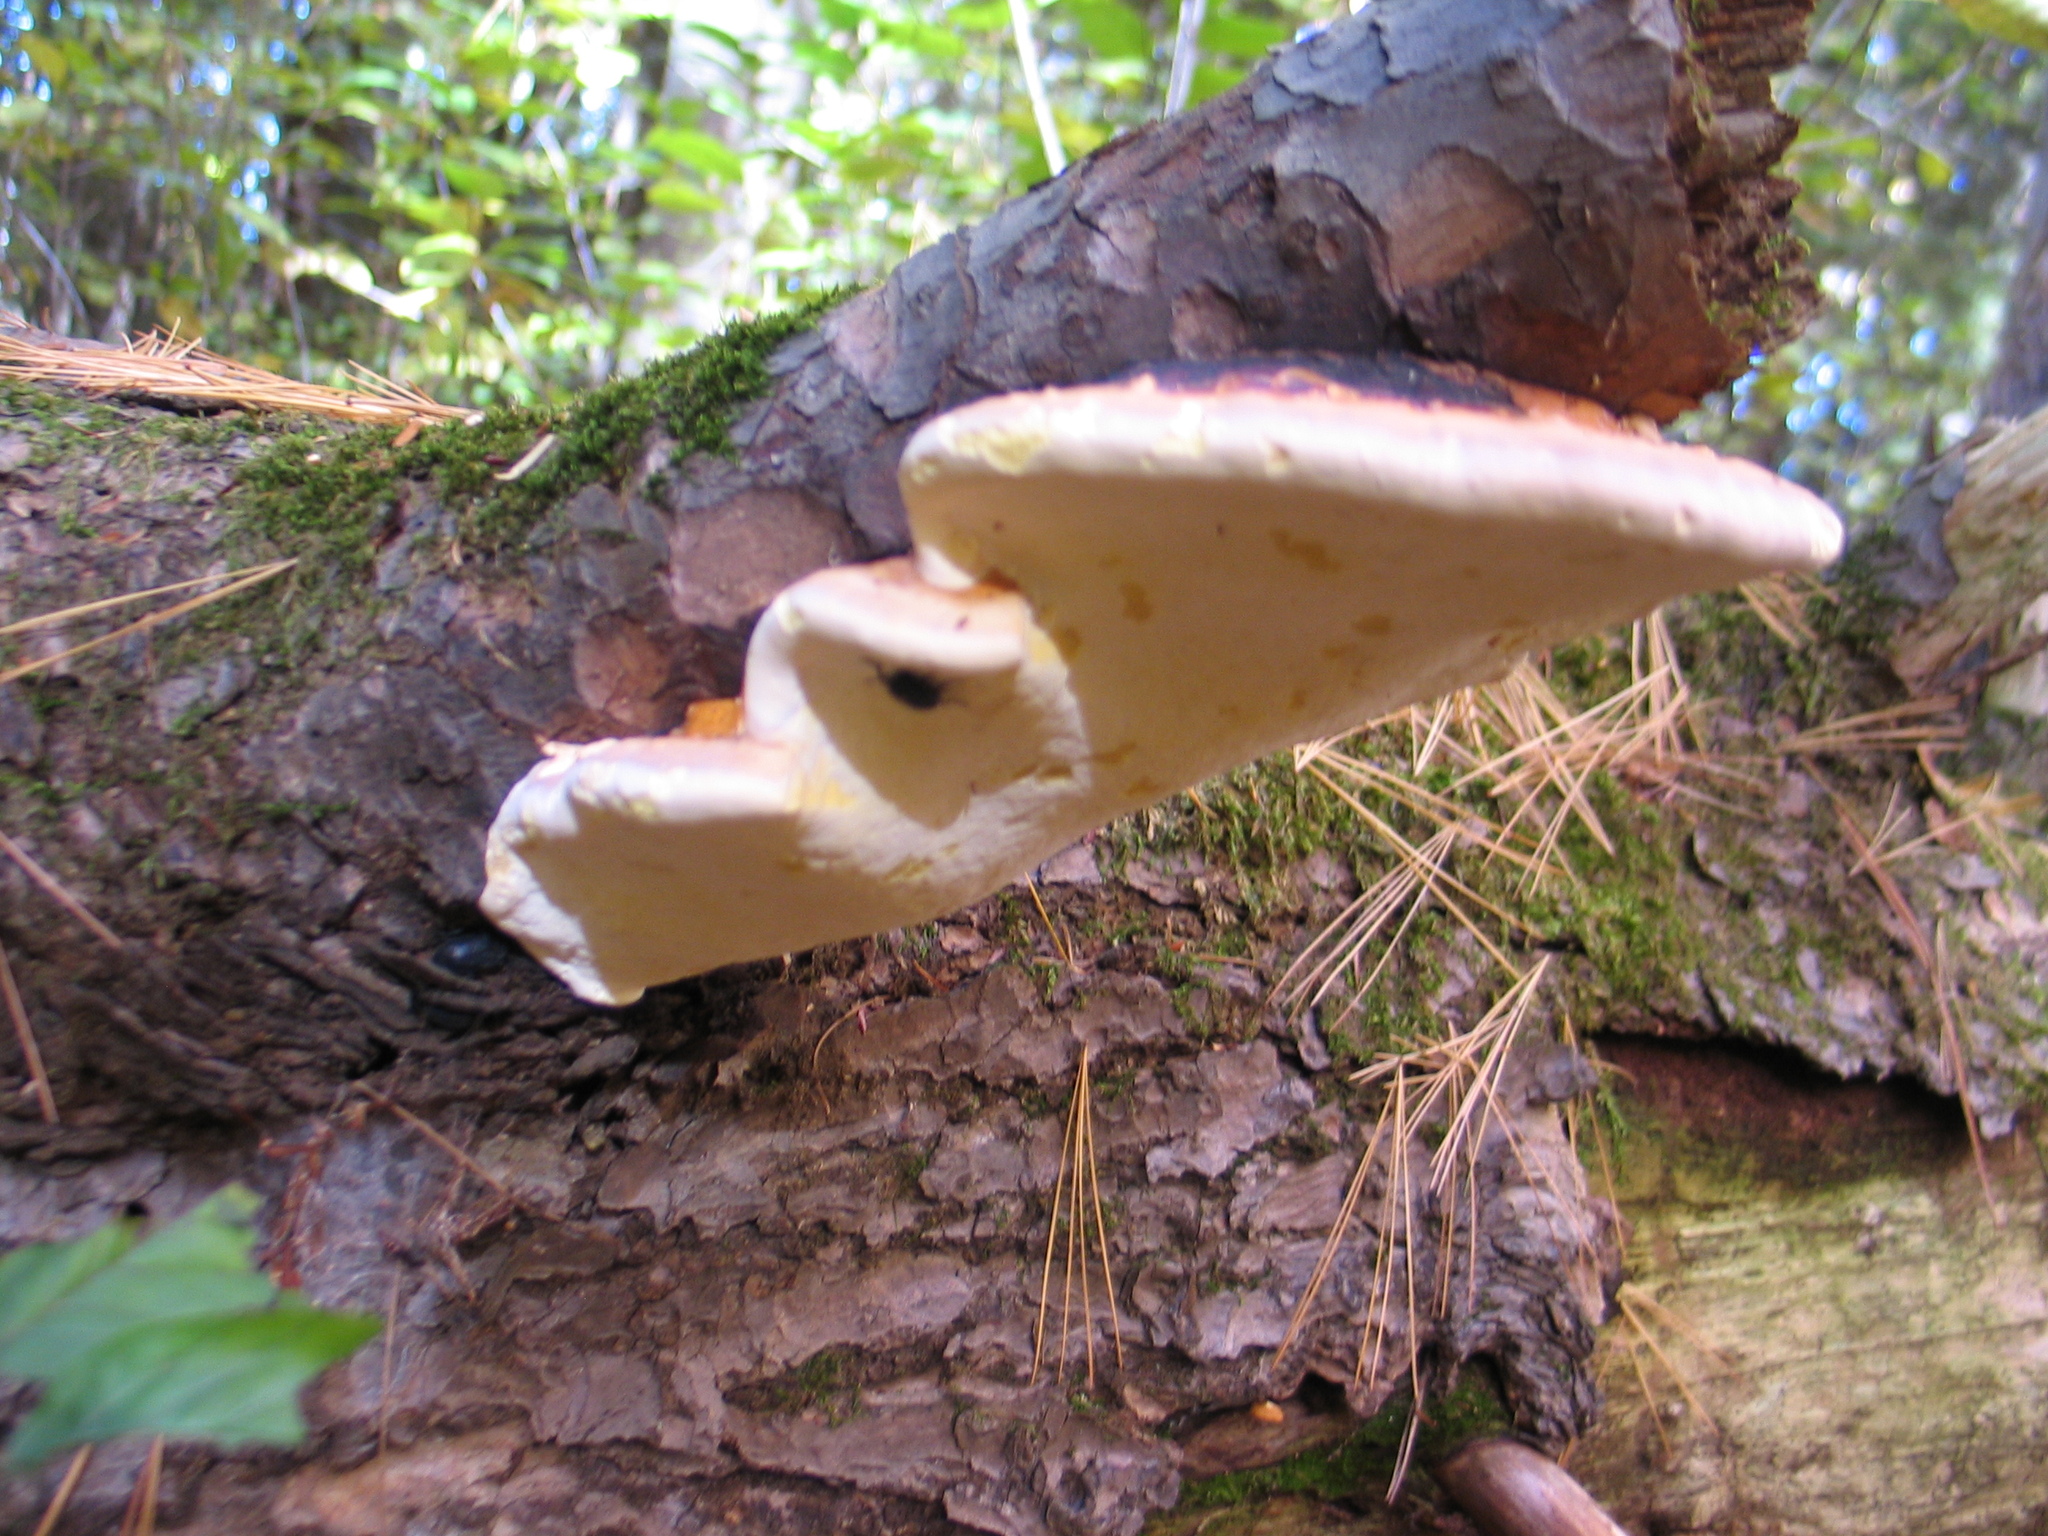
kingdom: Fungi
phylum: Basidiomycota
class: Agaricomycetes
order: Polyporales
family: Fomitopsidaceae
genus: Fomitopsis
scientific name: Fomitopsis mounceae
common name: Northern red belt
